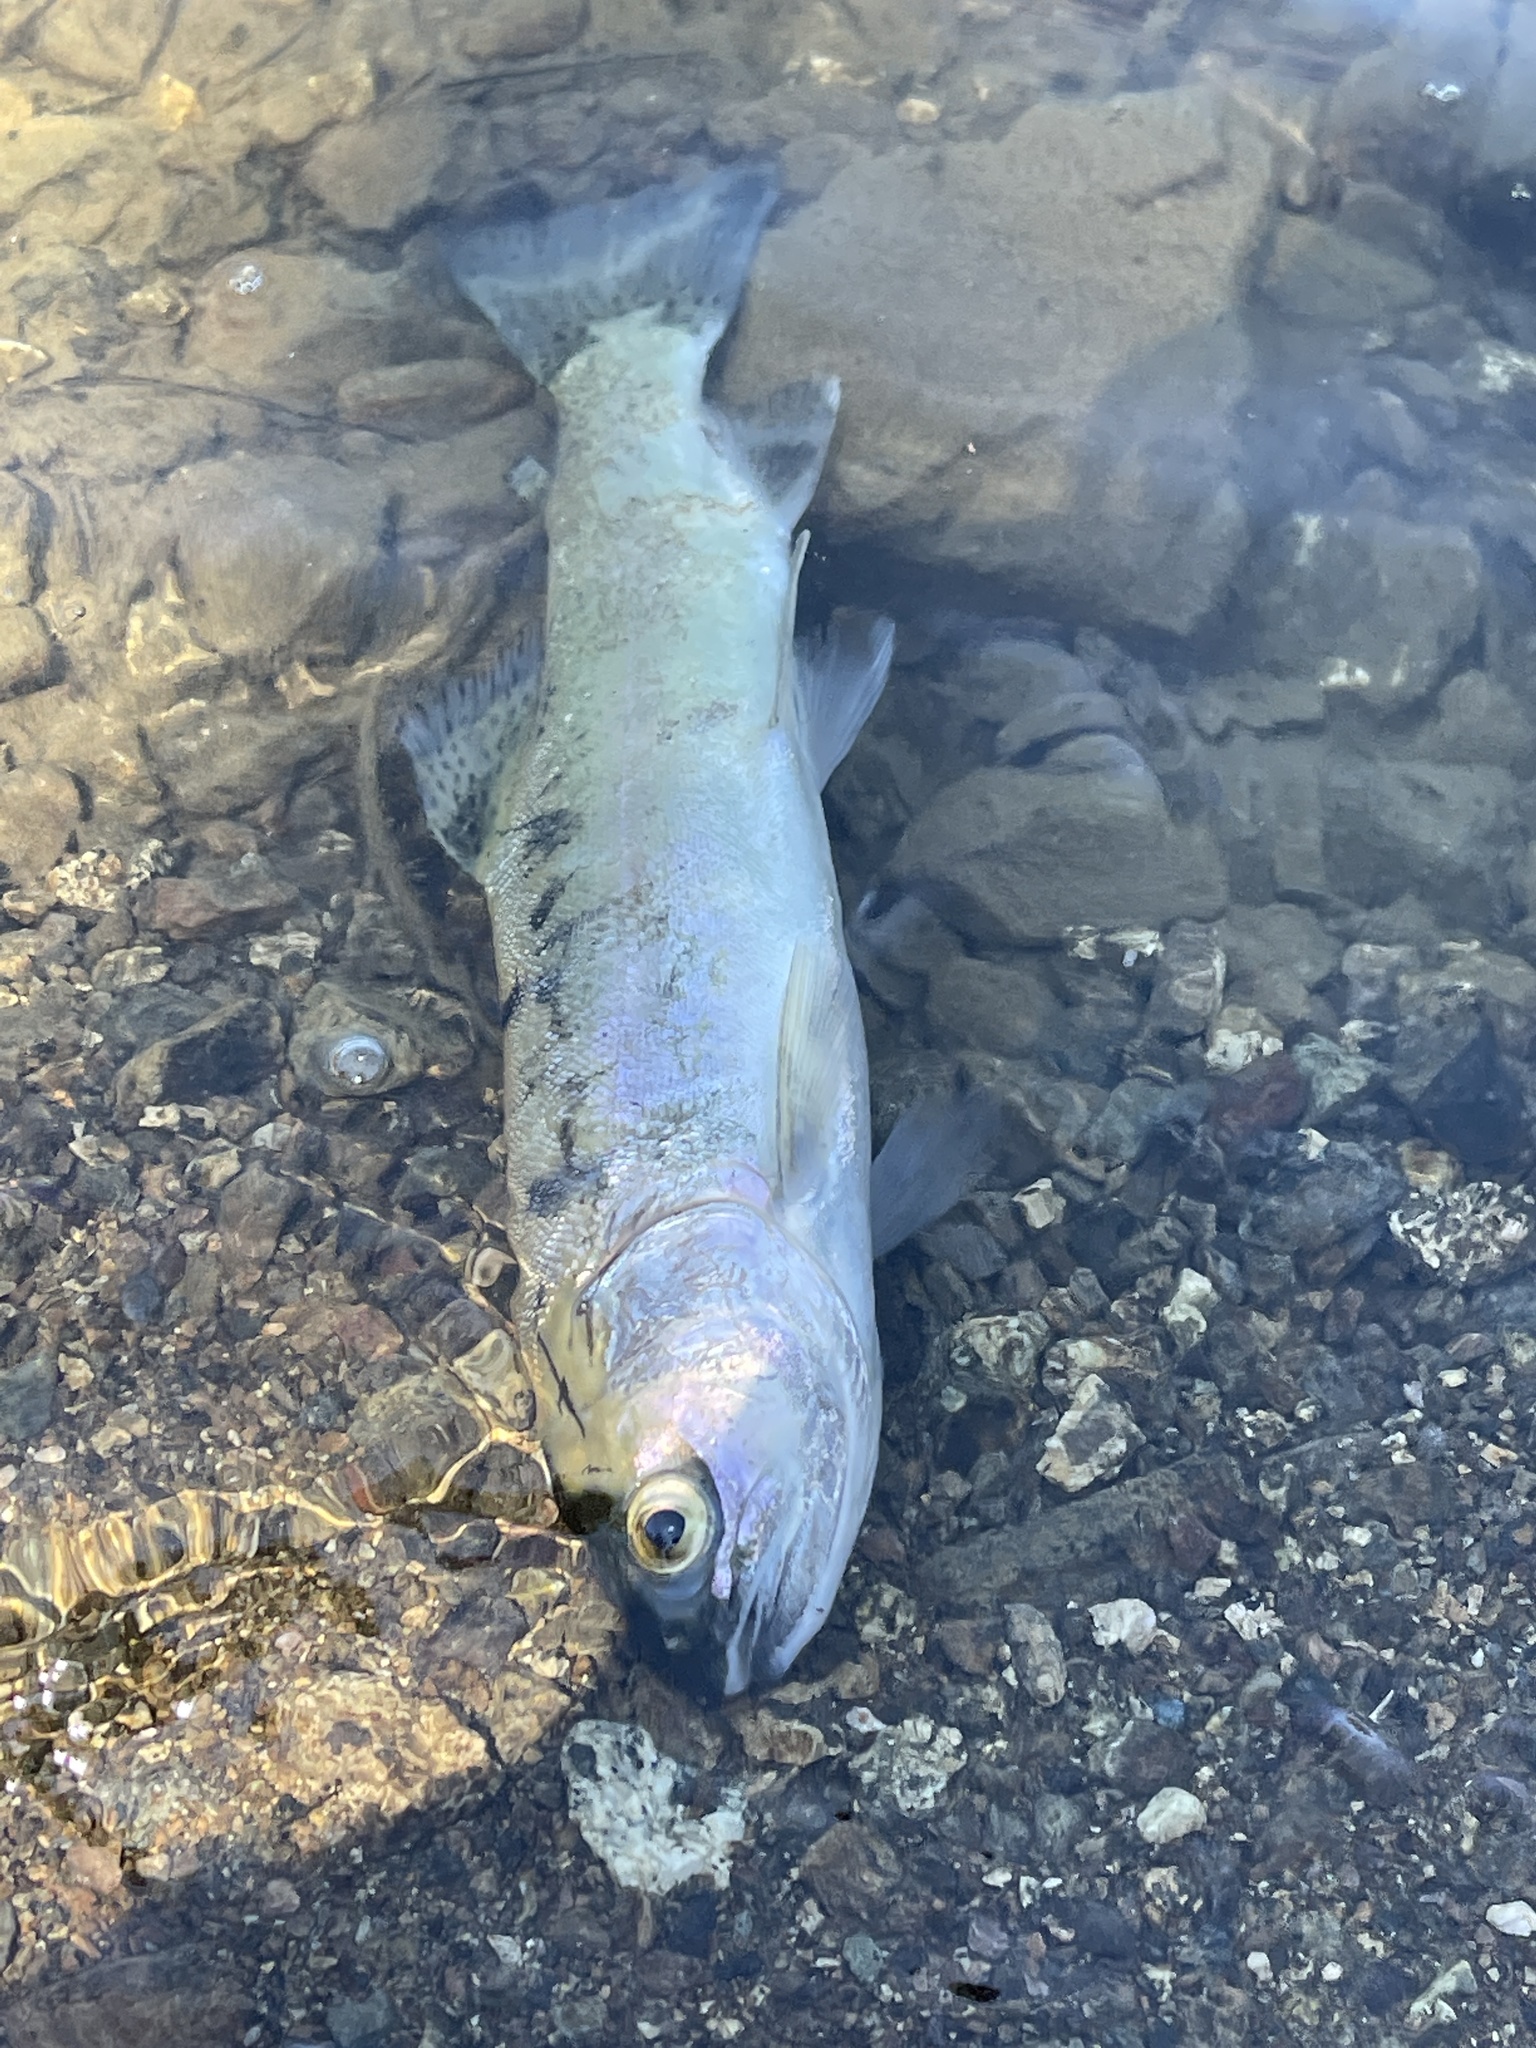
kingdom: Animalia
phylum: Chordata
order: Salmoniformes
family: Salmonidae
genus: Oncorhynchus
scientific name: Oncorhynchus mykiss
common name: Rainbow trout
